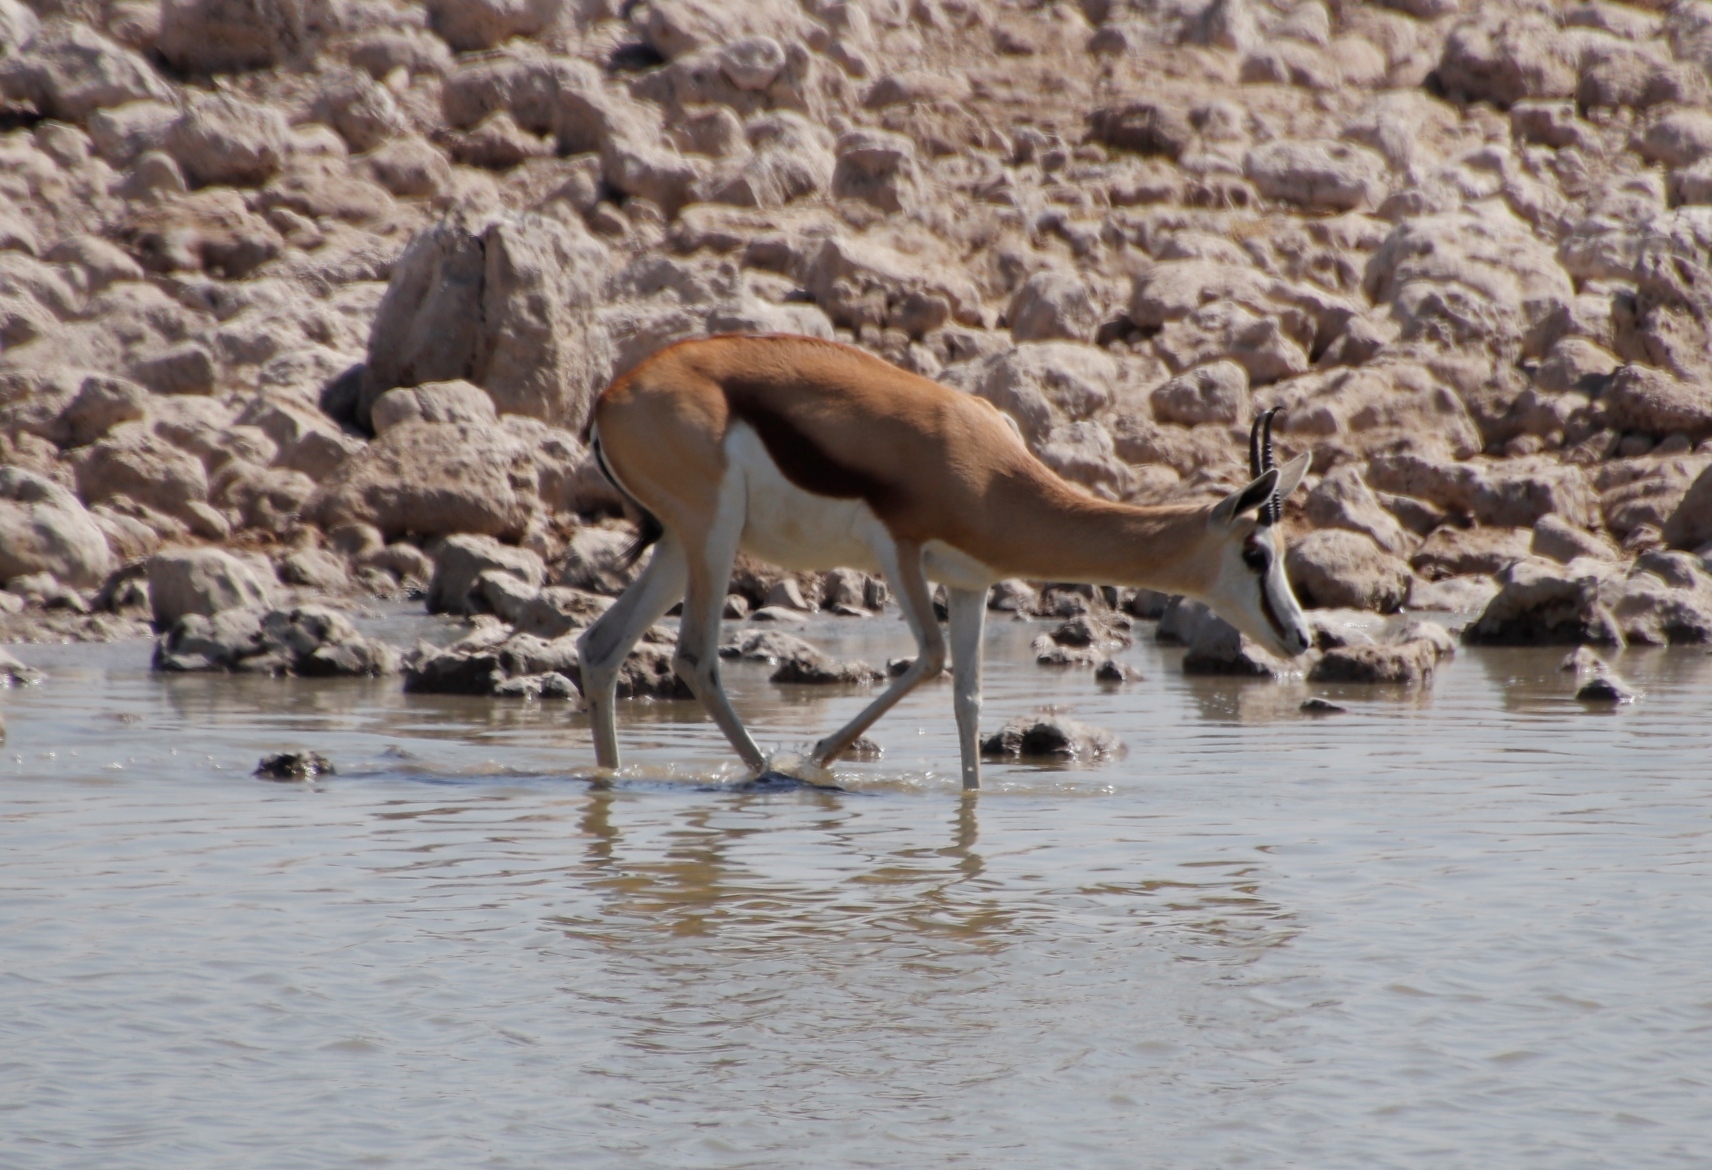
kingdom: Animalia
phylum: Chordata
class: Mammalia
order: Artiodactyla
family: Bovidae
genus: Antidorcas
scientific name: Antidorcas marsupialis
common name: Springbok
